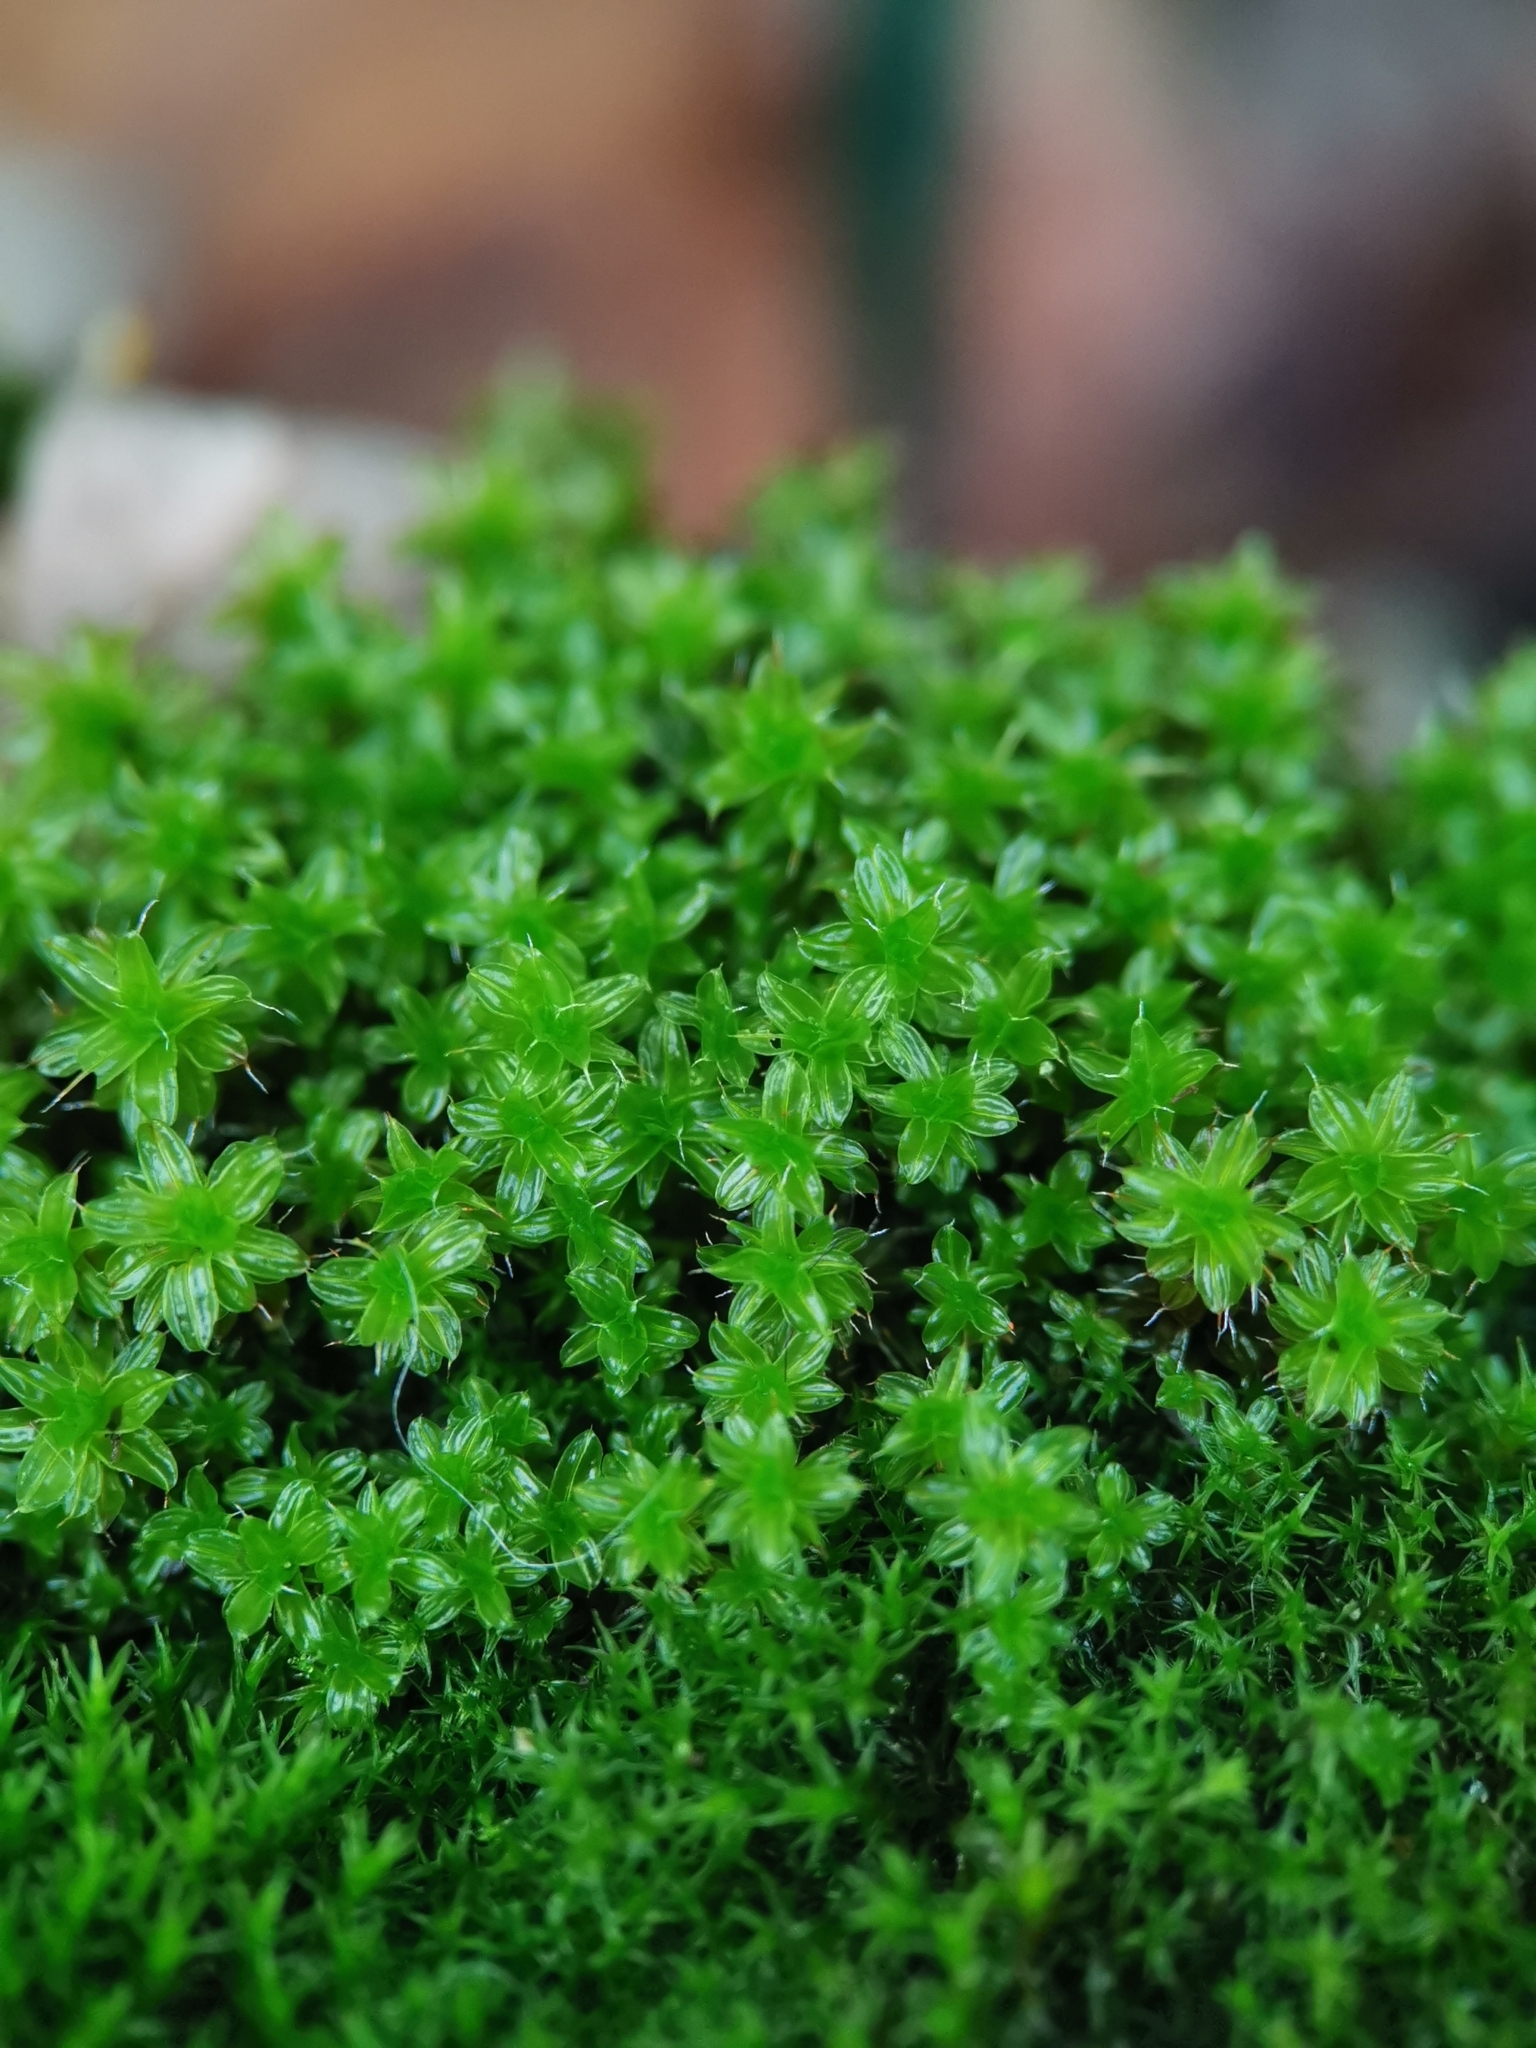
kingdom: Plantae
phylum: Bryophyta
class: Bryopsida
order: Pottiales
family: Pottiaceae
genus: Syntrichia
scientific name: Syntrichia ruralis
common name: Sidewalk screw moss
